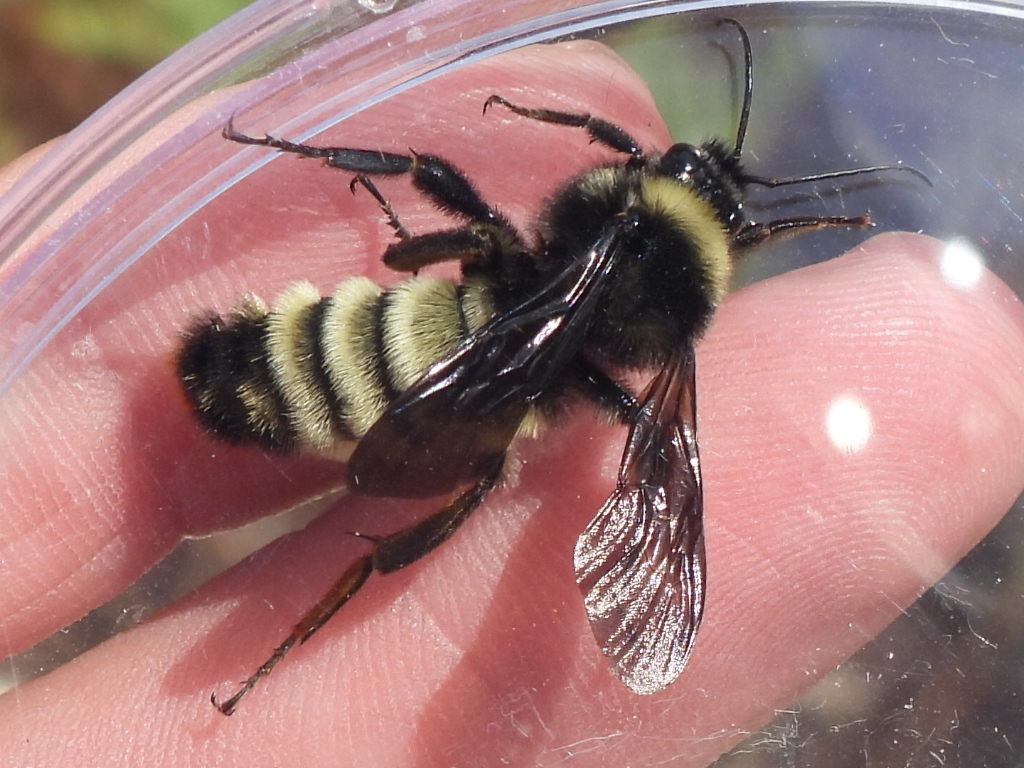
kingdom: Animalia
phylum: Arthropoda
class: Insecta
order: Hymenoptera
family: Apidae
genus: Bombus
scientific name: Bombus pensylvanicus
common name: Bumble bee
